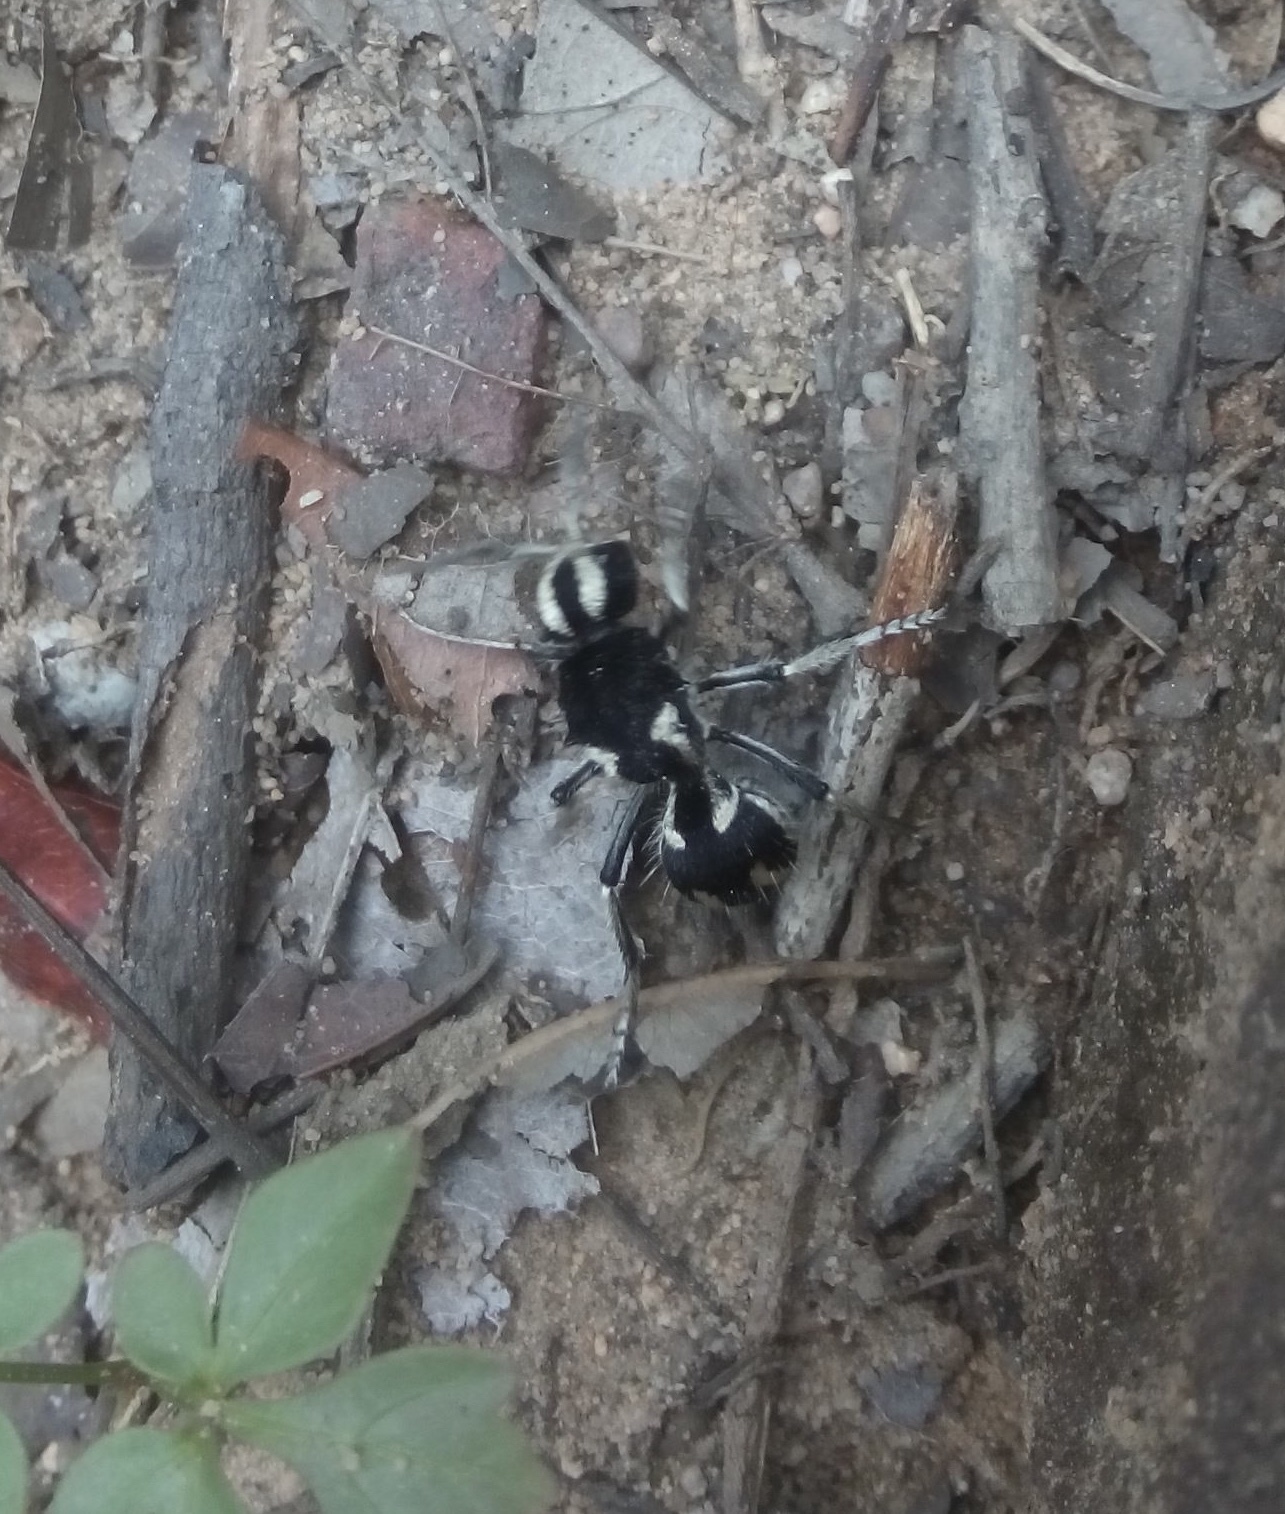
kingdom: Animalia
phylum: Arthropoda
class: Insecta
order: Hymenoptera
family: Mutillidae
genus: Hoplomutilla
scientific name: Hoplomutilla
